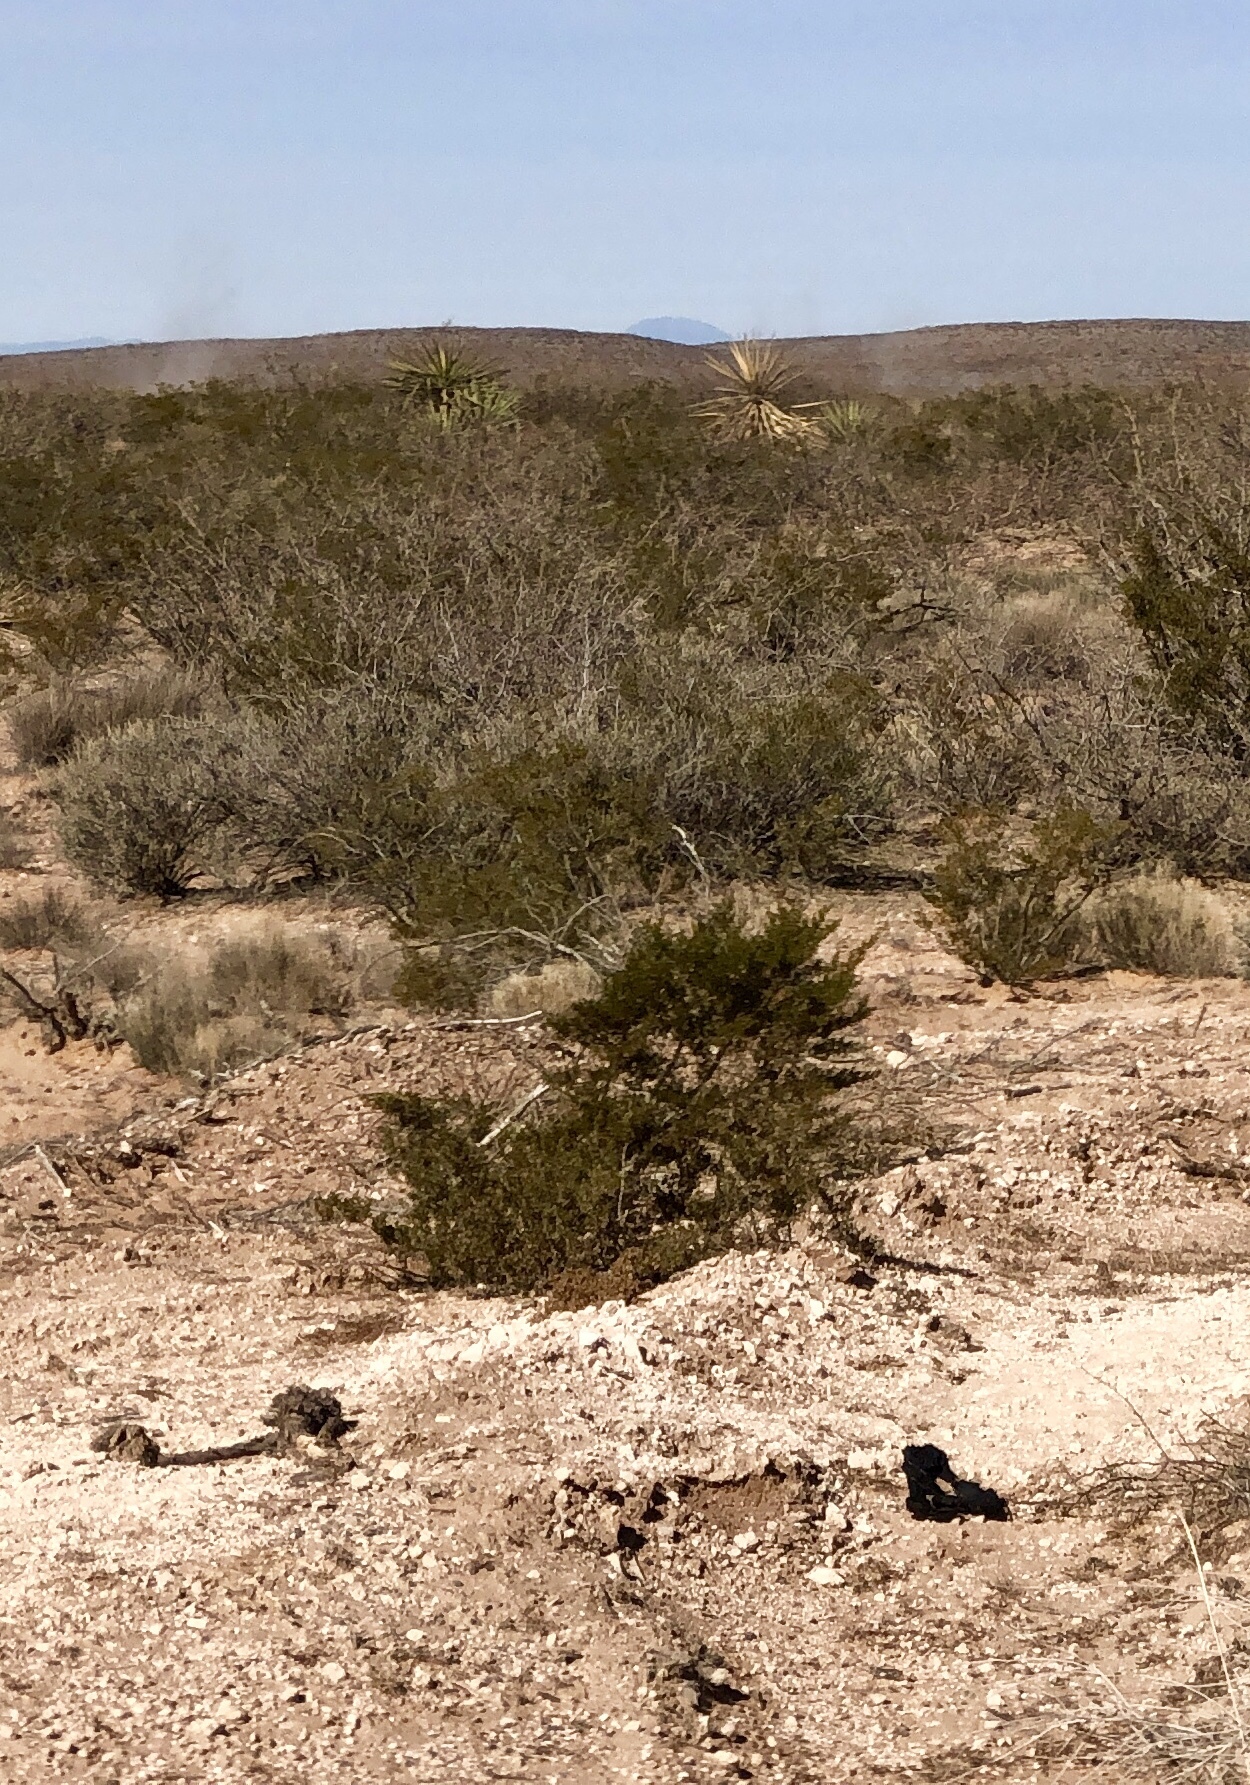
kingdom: Plantae
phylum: Tracheophyta
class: Magnoliopsida
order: Zygophyllales
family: Zygophyllaceae
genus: Larrea
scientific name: Larrea tridentata
